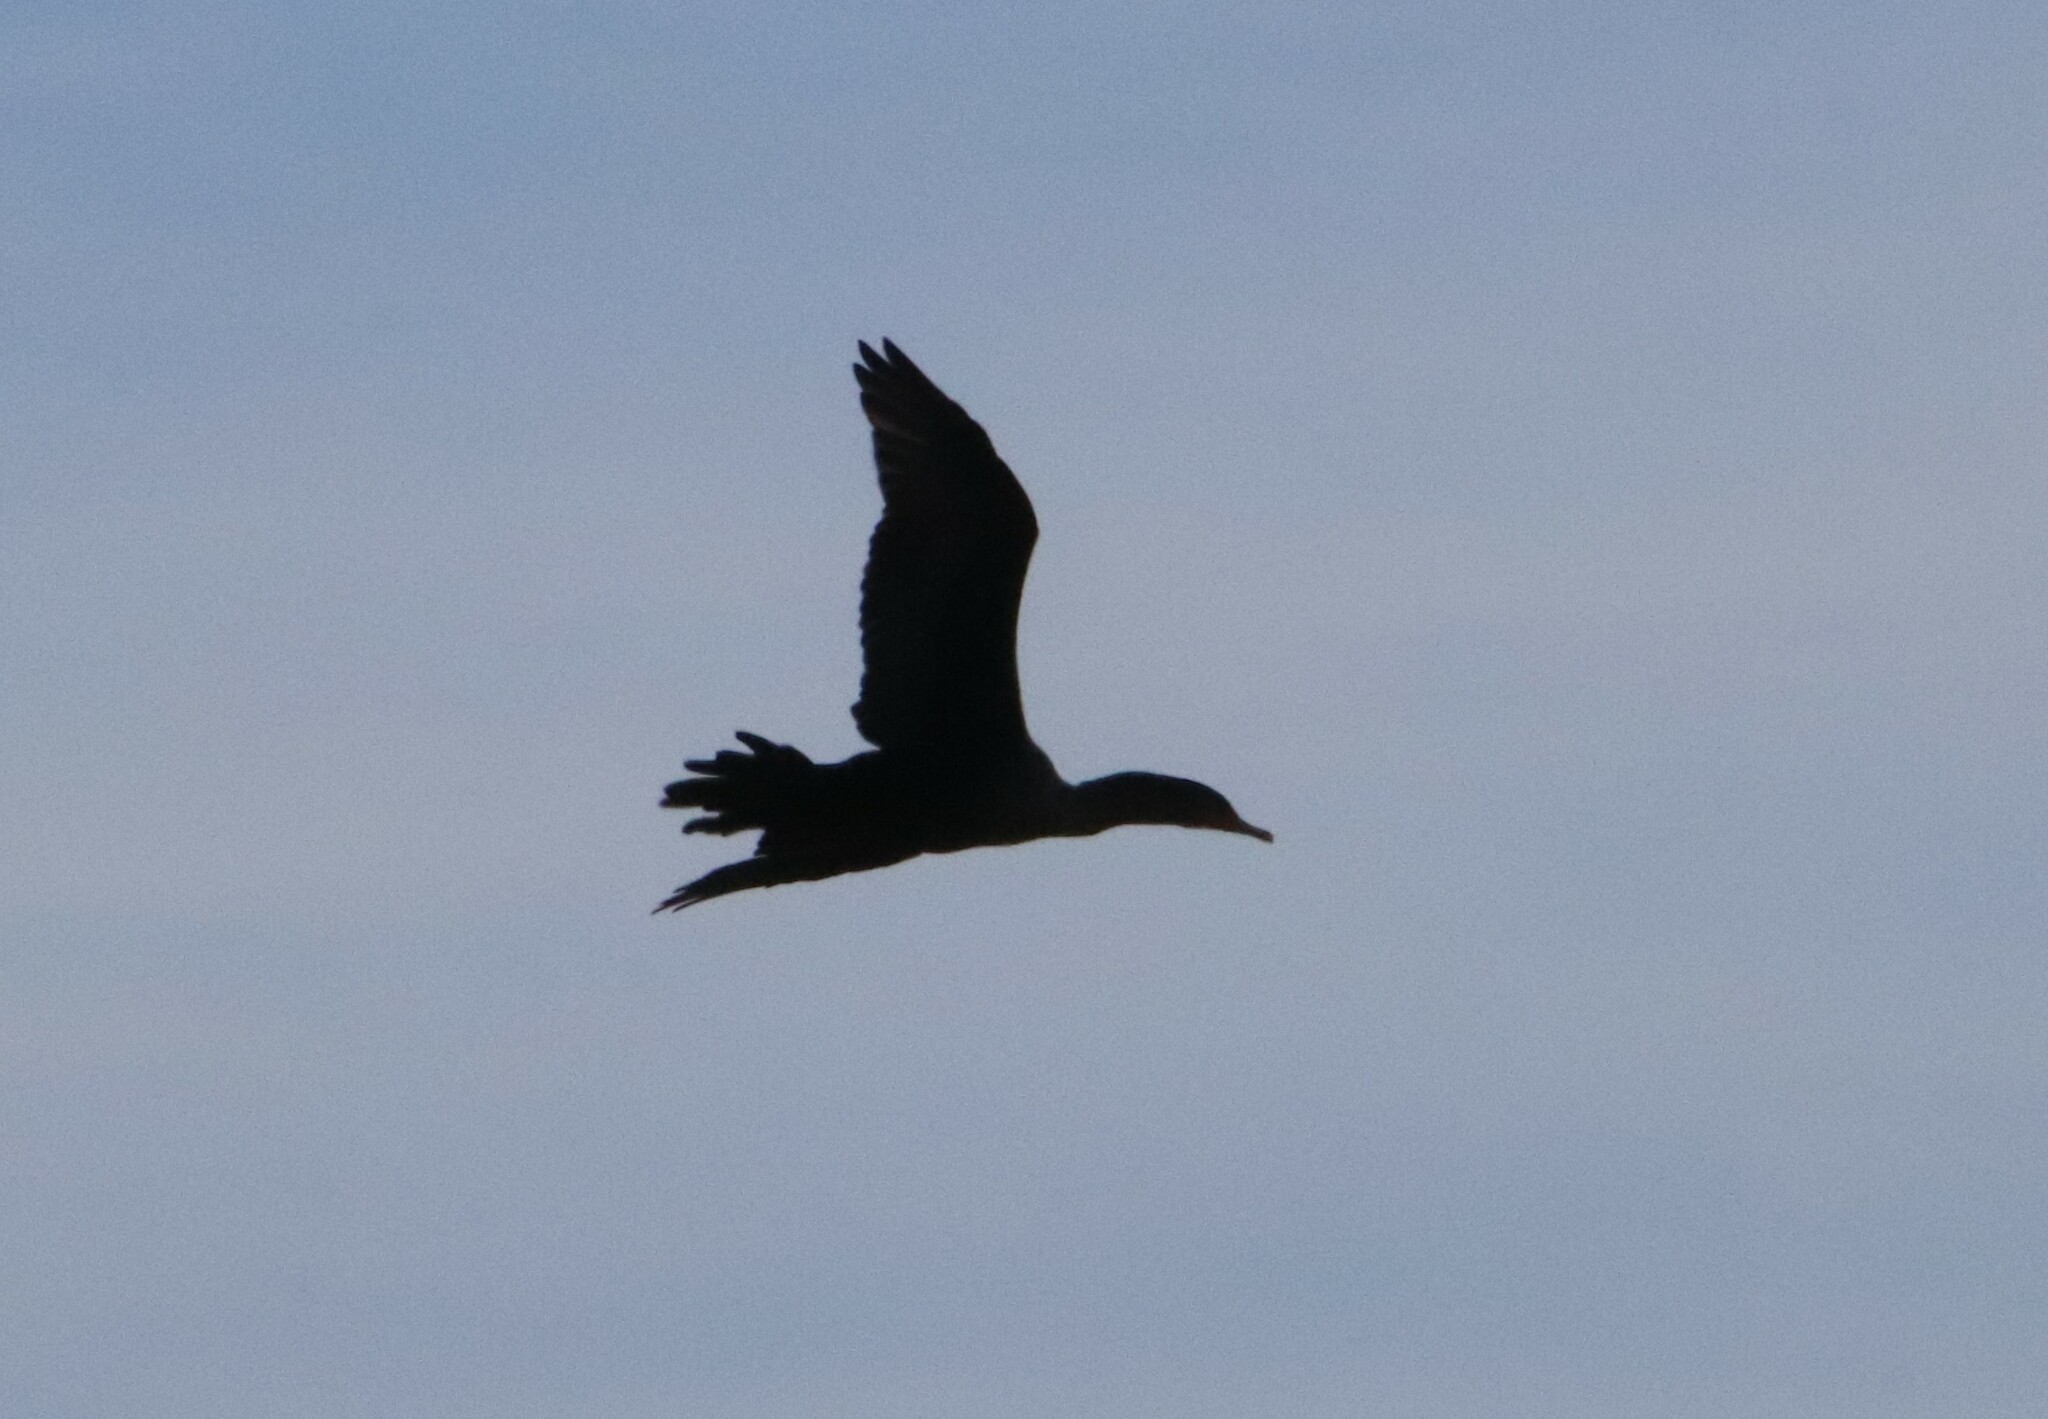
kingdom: Animalia
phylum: Chordata
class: Aves
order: Suliformes
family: Phalacrocoracidae
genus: Phalacrocorax
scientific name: Phalacrocorax auritus
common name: Double-crested cormorant
